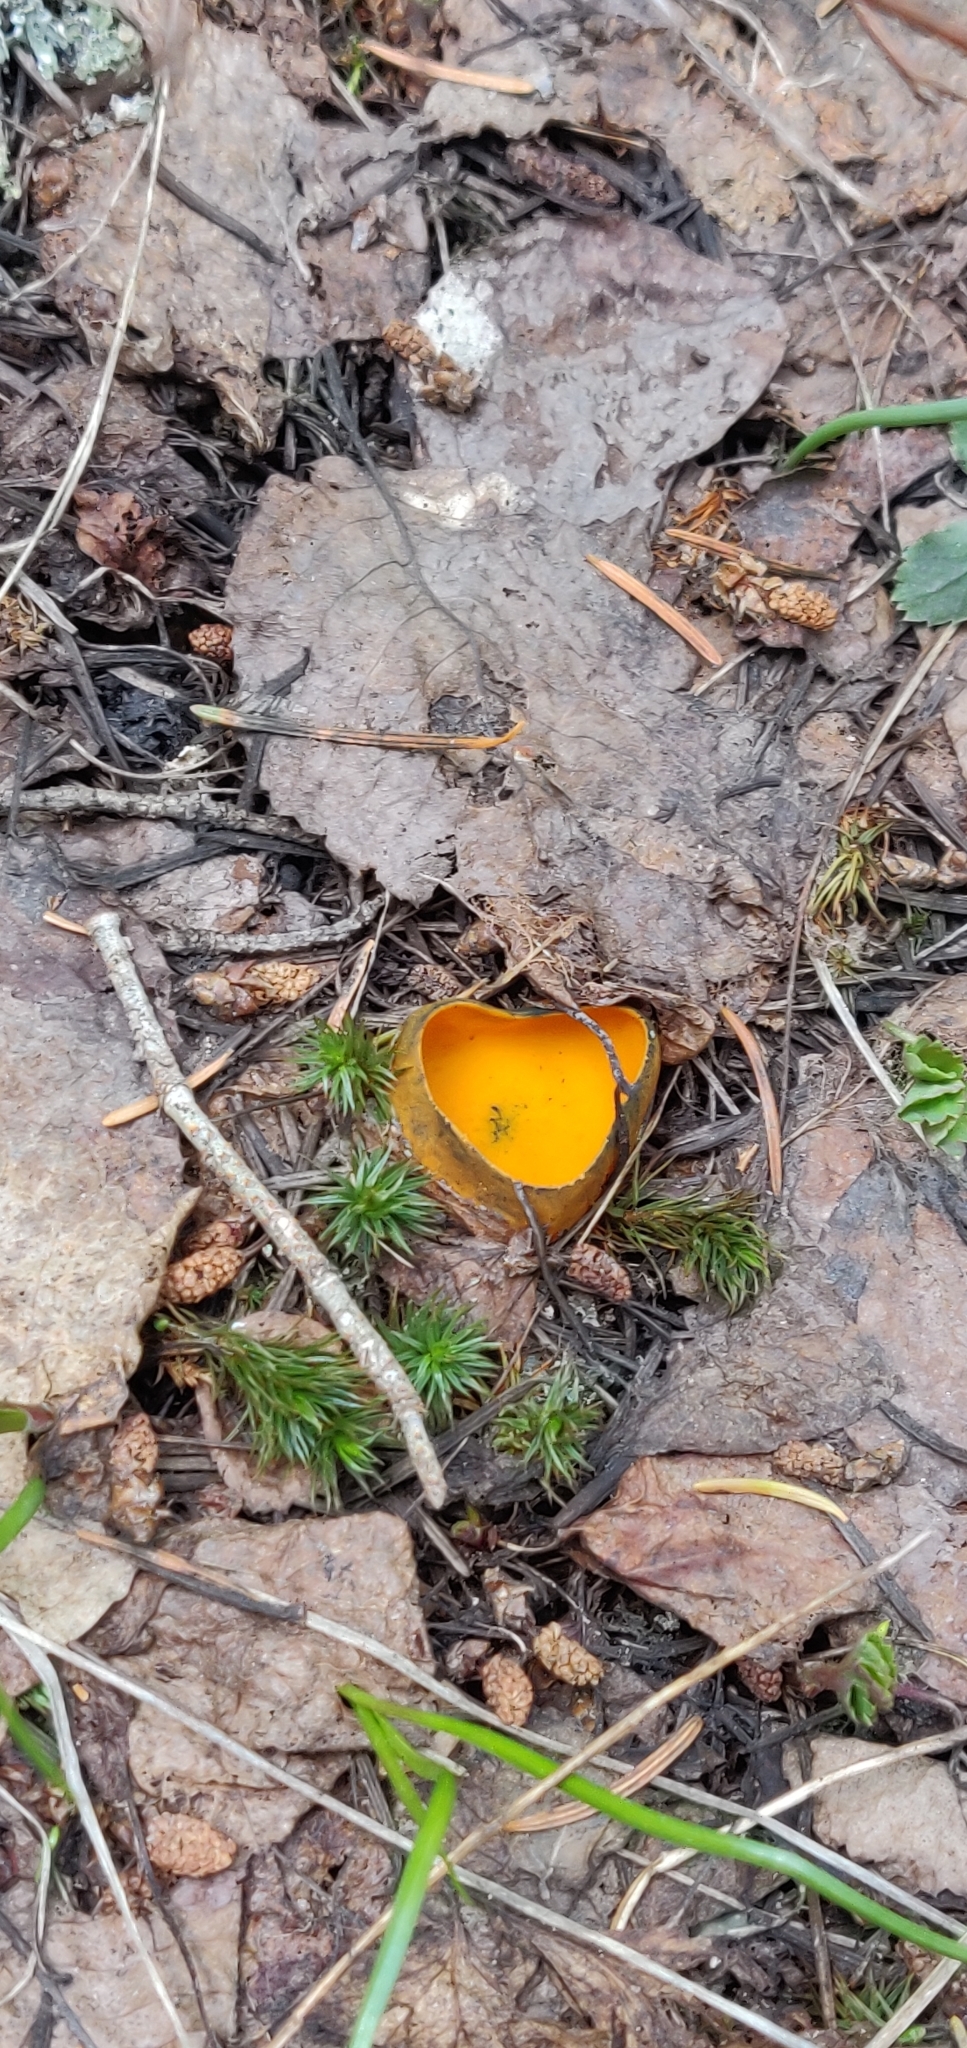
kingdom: Fungi
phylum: Ascomycota
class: Pezizomycetes
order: Pezizales
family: Caloscyphaceae
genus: Caloscypha
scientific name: Caloscypha fulgens
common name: Golden cup
